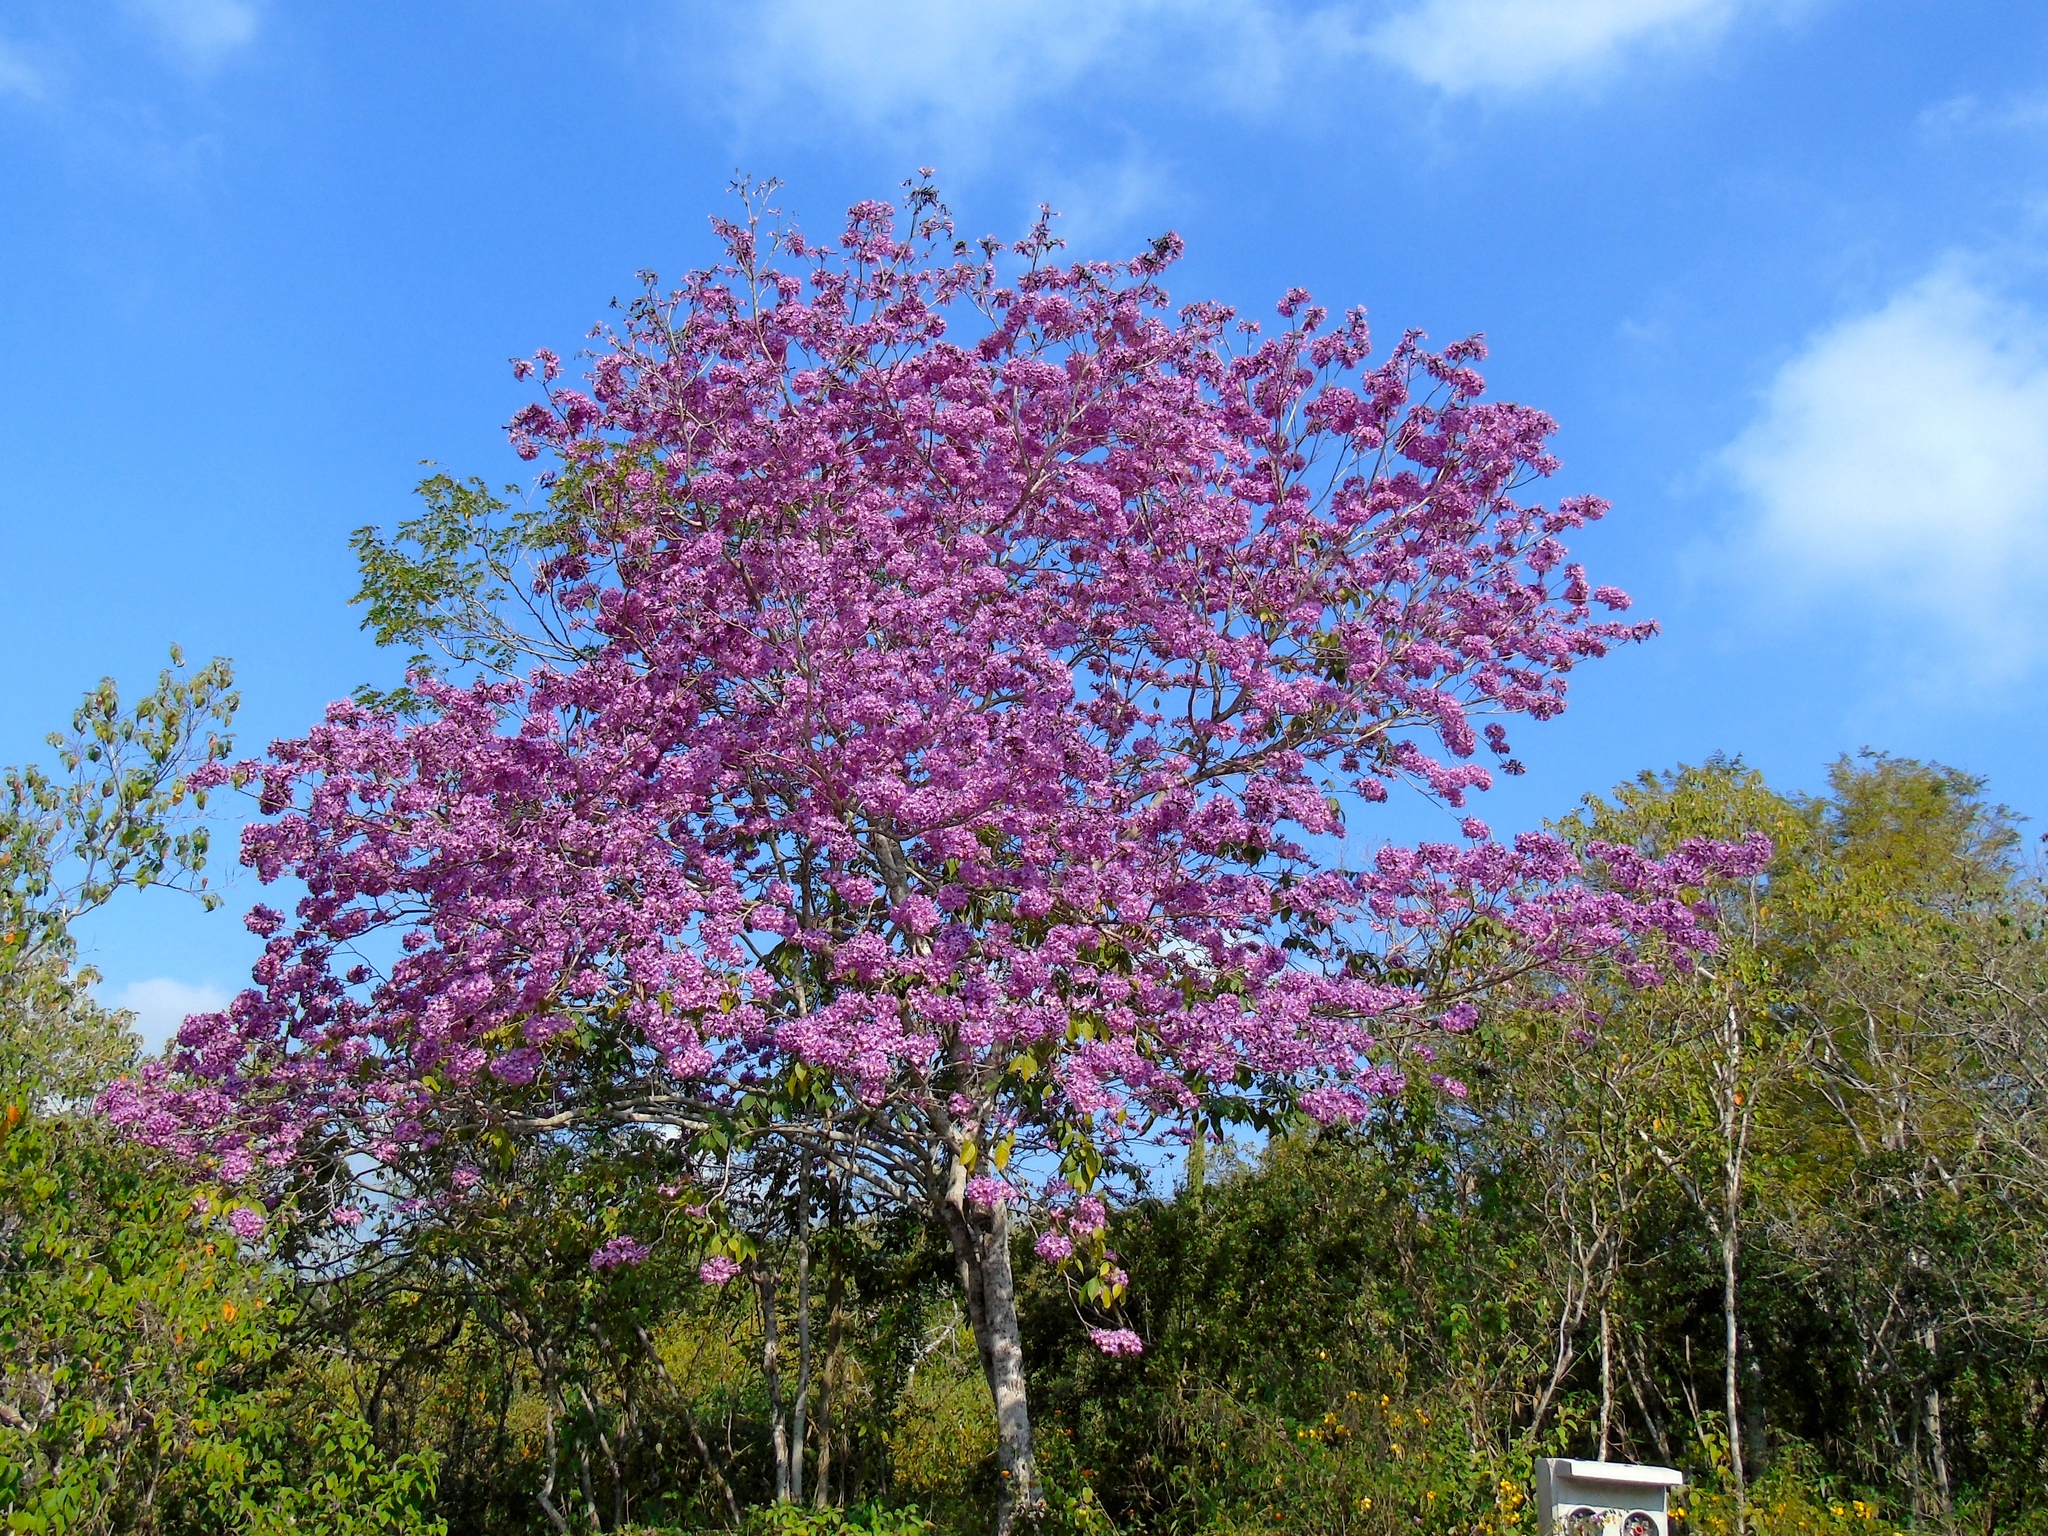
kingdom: Plantae
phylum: Tracheophyta
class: Magnoliopsida
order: Lamiales
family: Bignoniaceae
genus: Handroanthus
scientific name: Handroanthus impetiginosum
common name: Pink trumpet tree
